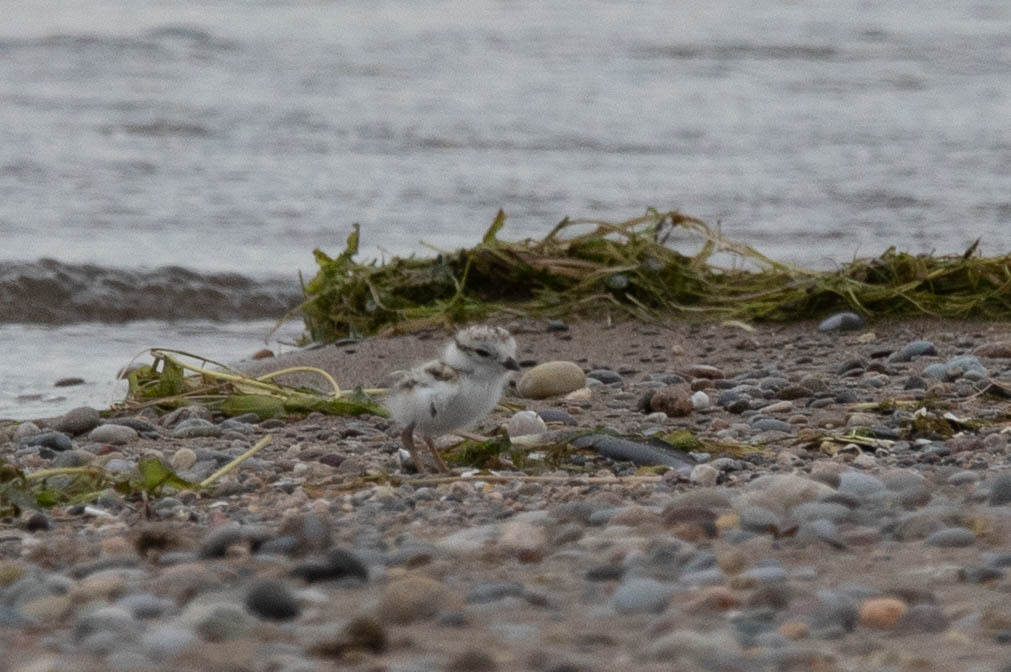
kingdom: Animalia
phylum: Chordata
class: Aves
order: Charadriiformes
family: Charadriidae
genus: Charadrius
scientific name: Charadrius melodus
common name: Piping plover
